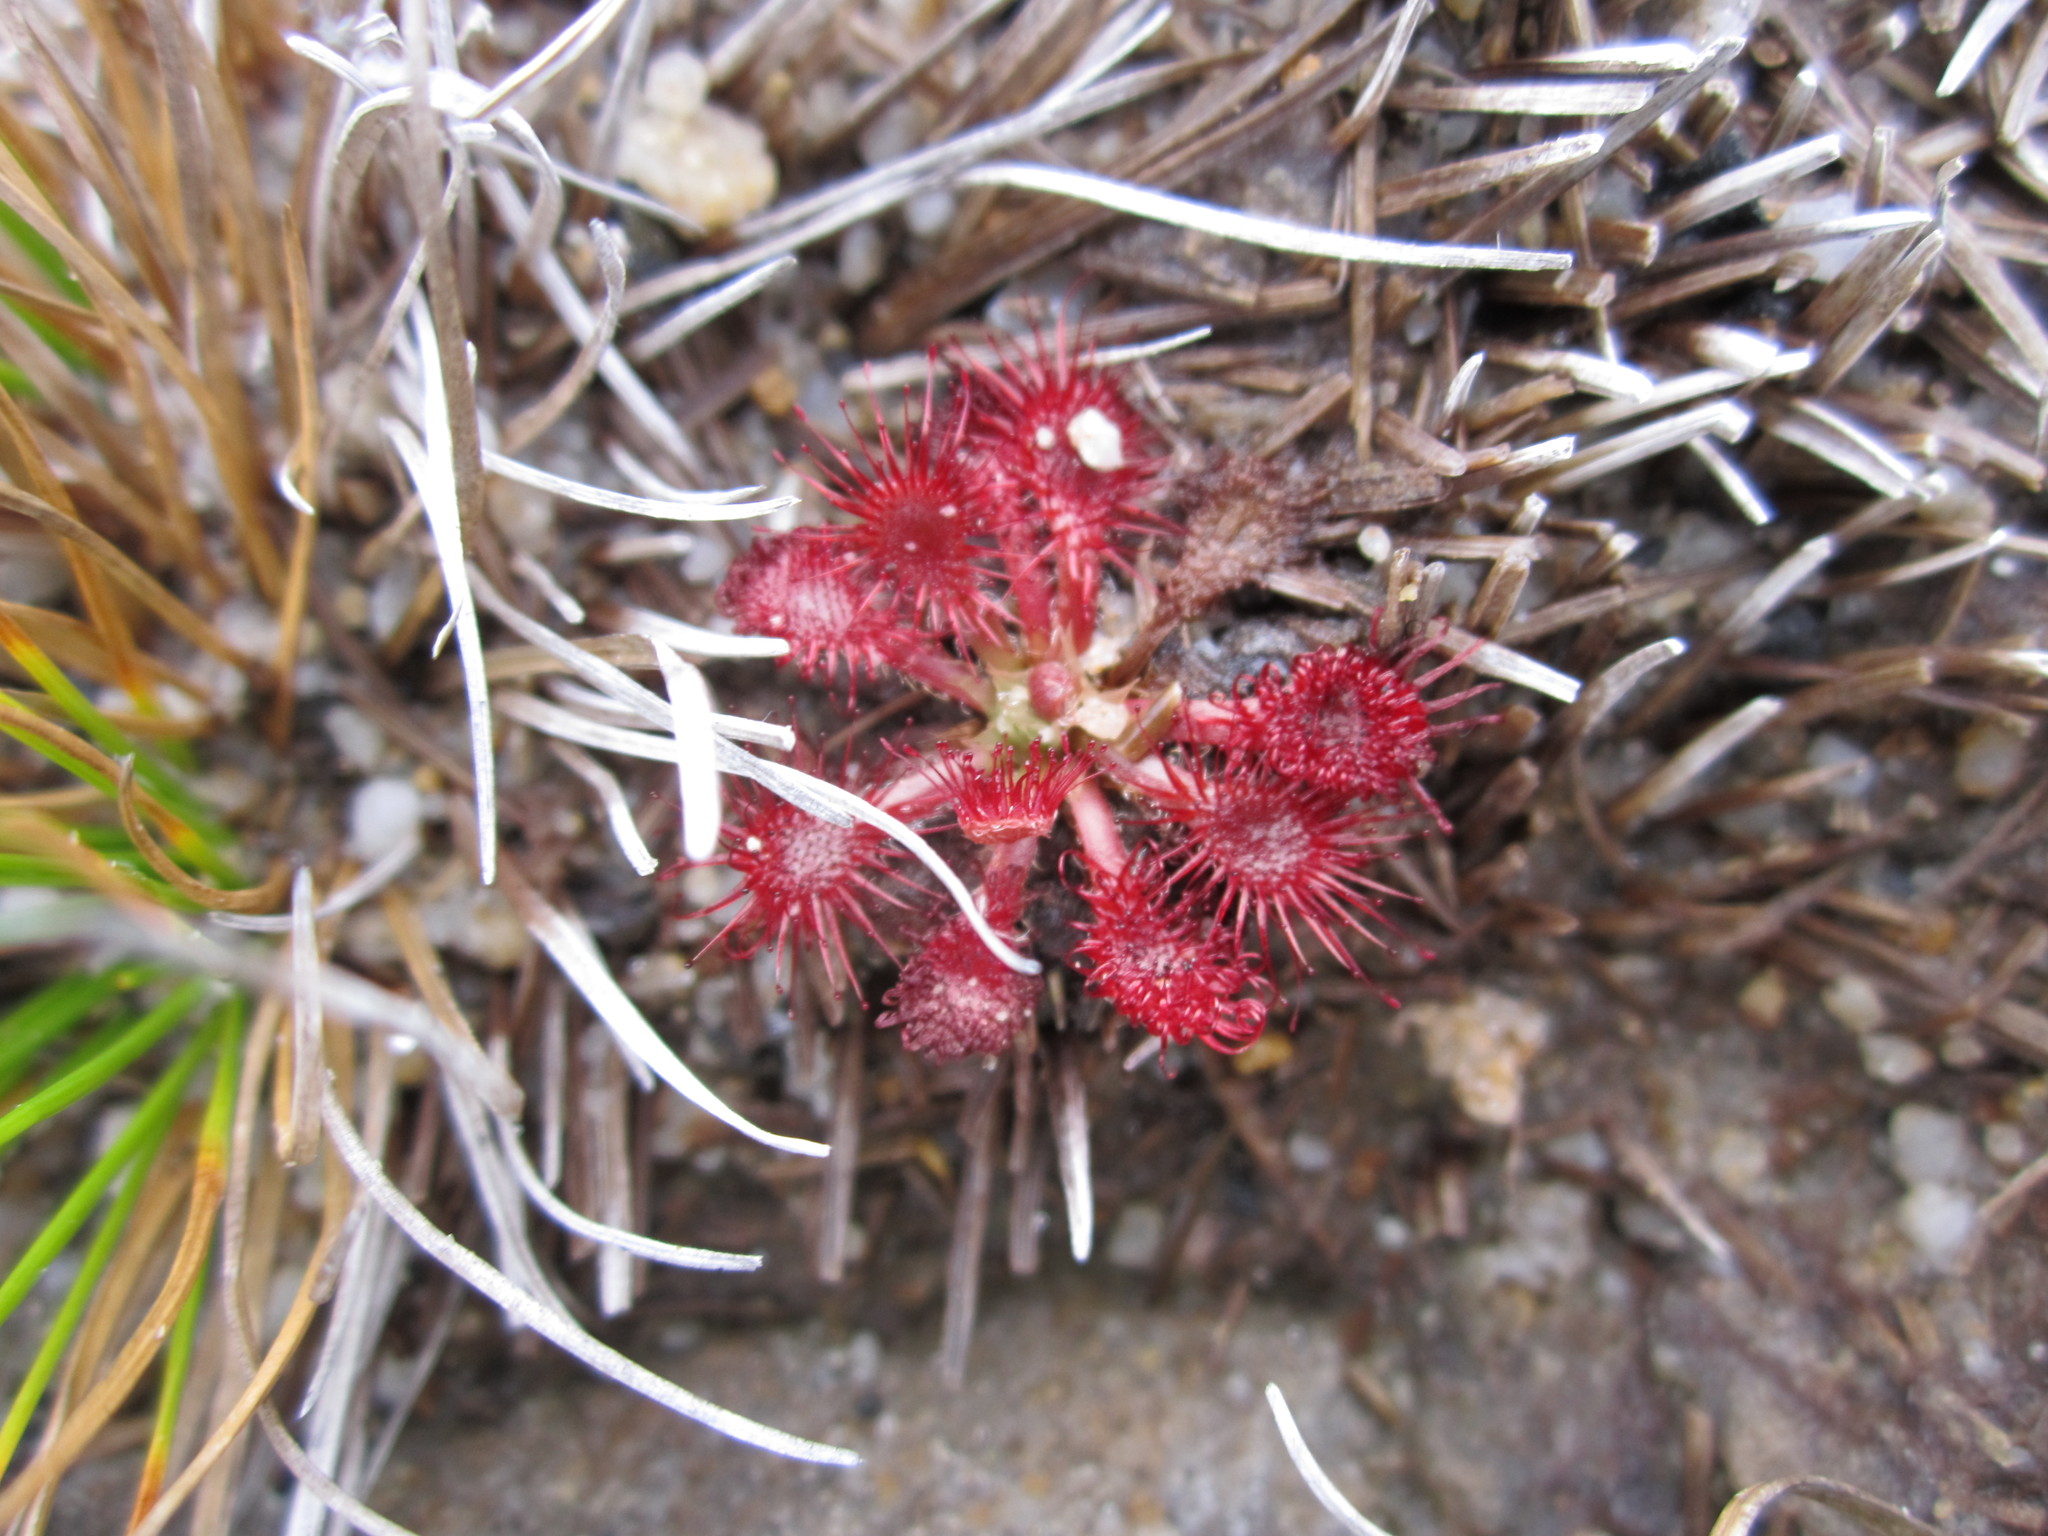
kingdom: Plantae
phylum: Tracheophyta
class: Magnoliopsida
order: Caryophyllales
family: Droseraceae
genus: Drosera
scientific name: Drosera spatulata
